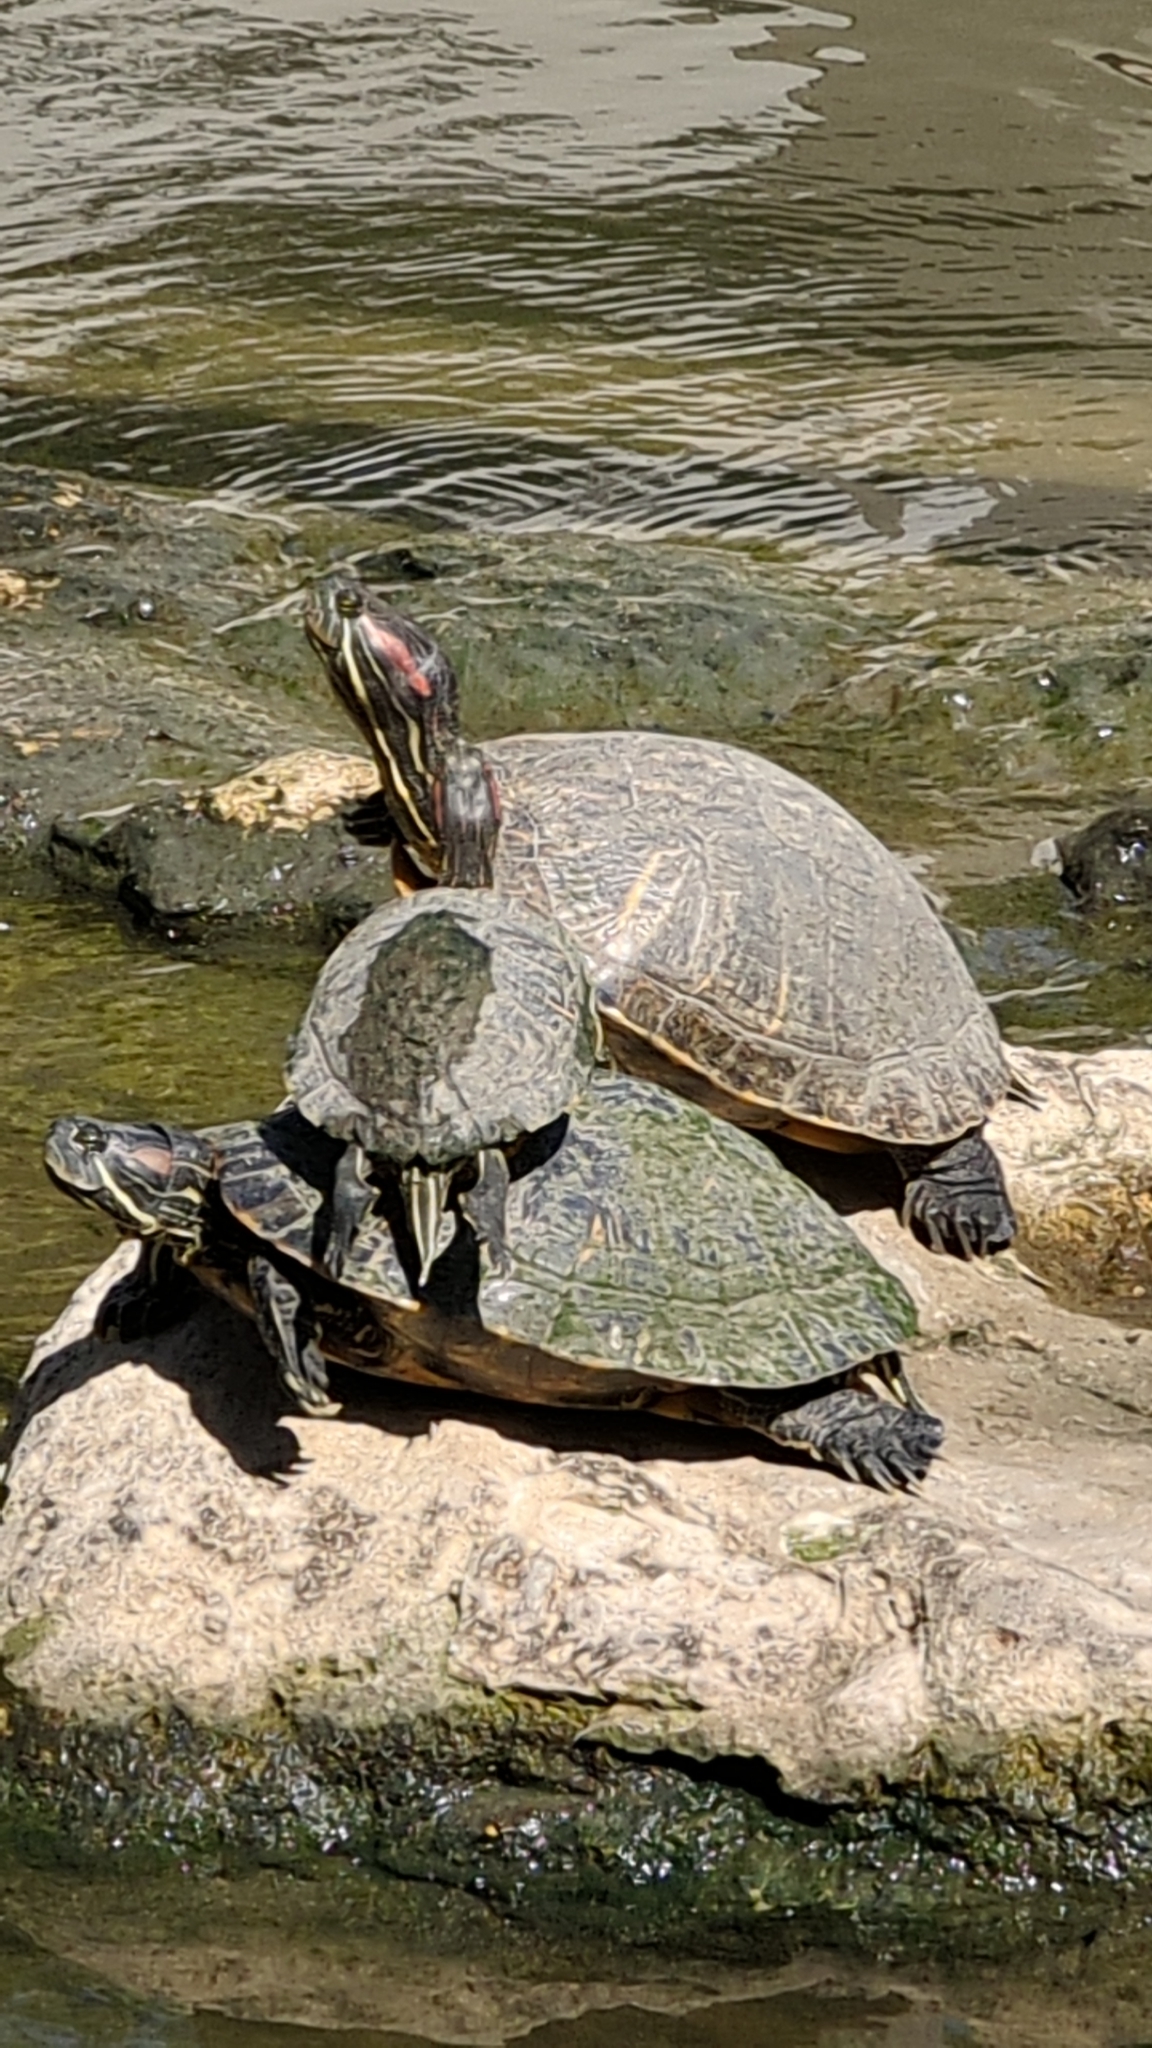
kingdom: Animalia
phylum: Chordata
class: Testudines
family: Emydidae
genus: Trachemys
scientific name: Trachemys scripta
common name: Slider
